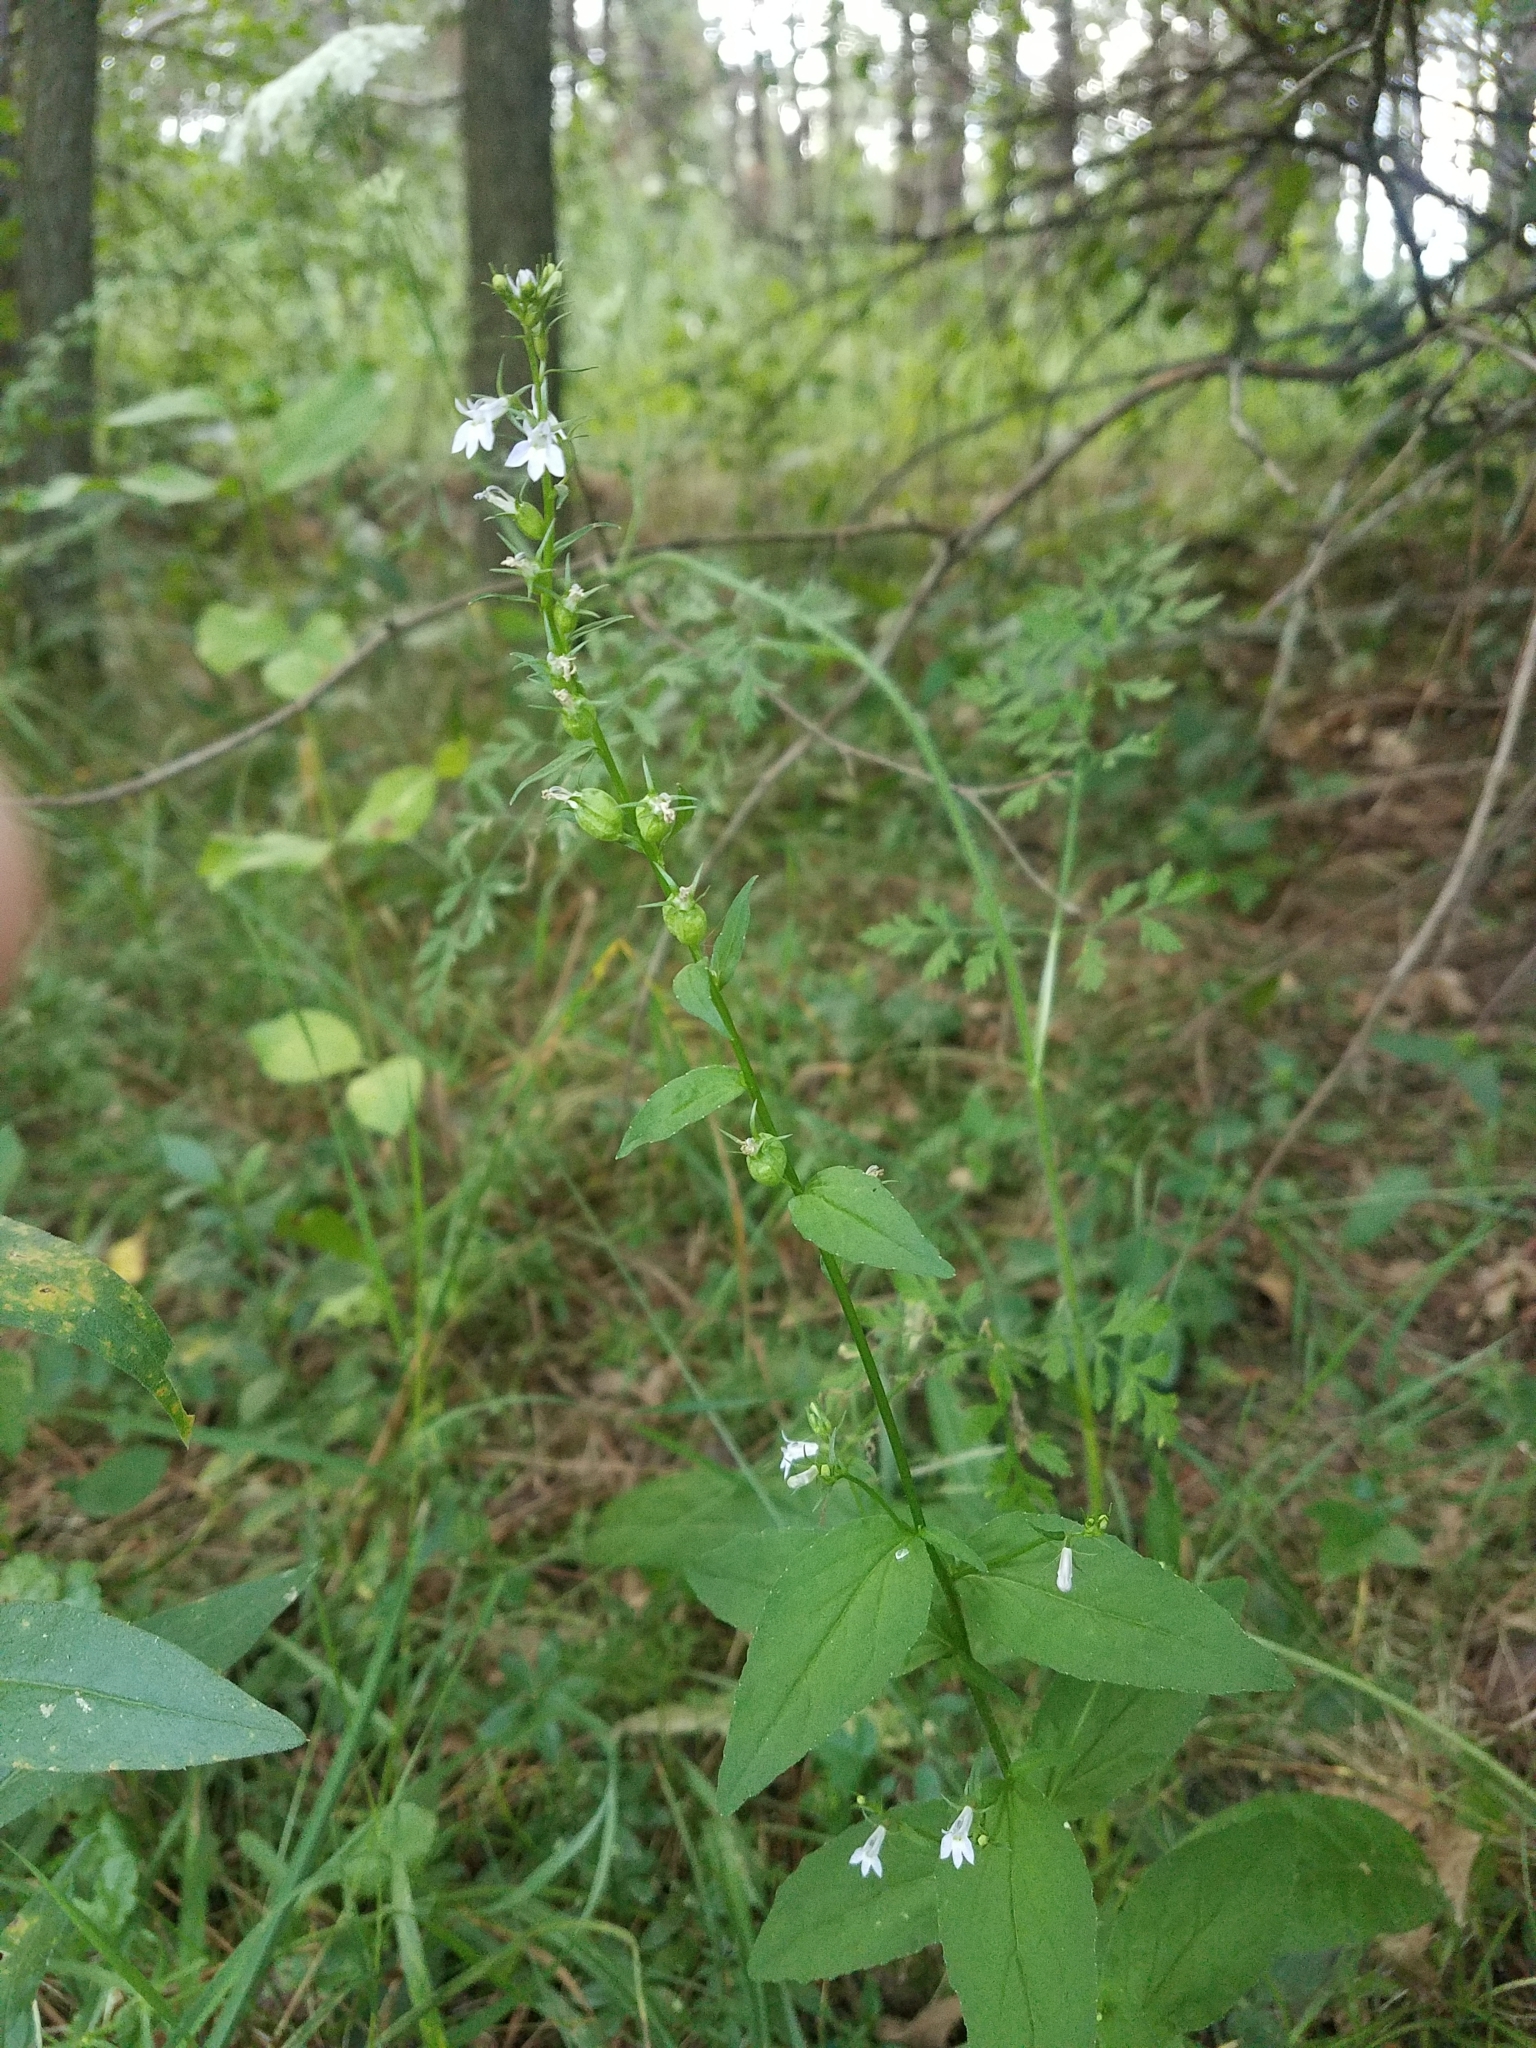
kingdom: Plantae
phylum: Tracheophyta
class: Magnoliopsida
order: Asterales
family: Campanulaceae
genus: Lobelia
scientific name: Lobelia inflata
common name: Indian tobacco
